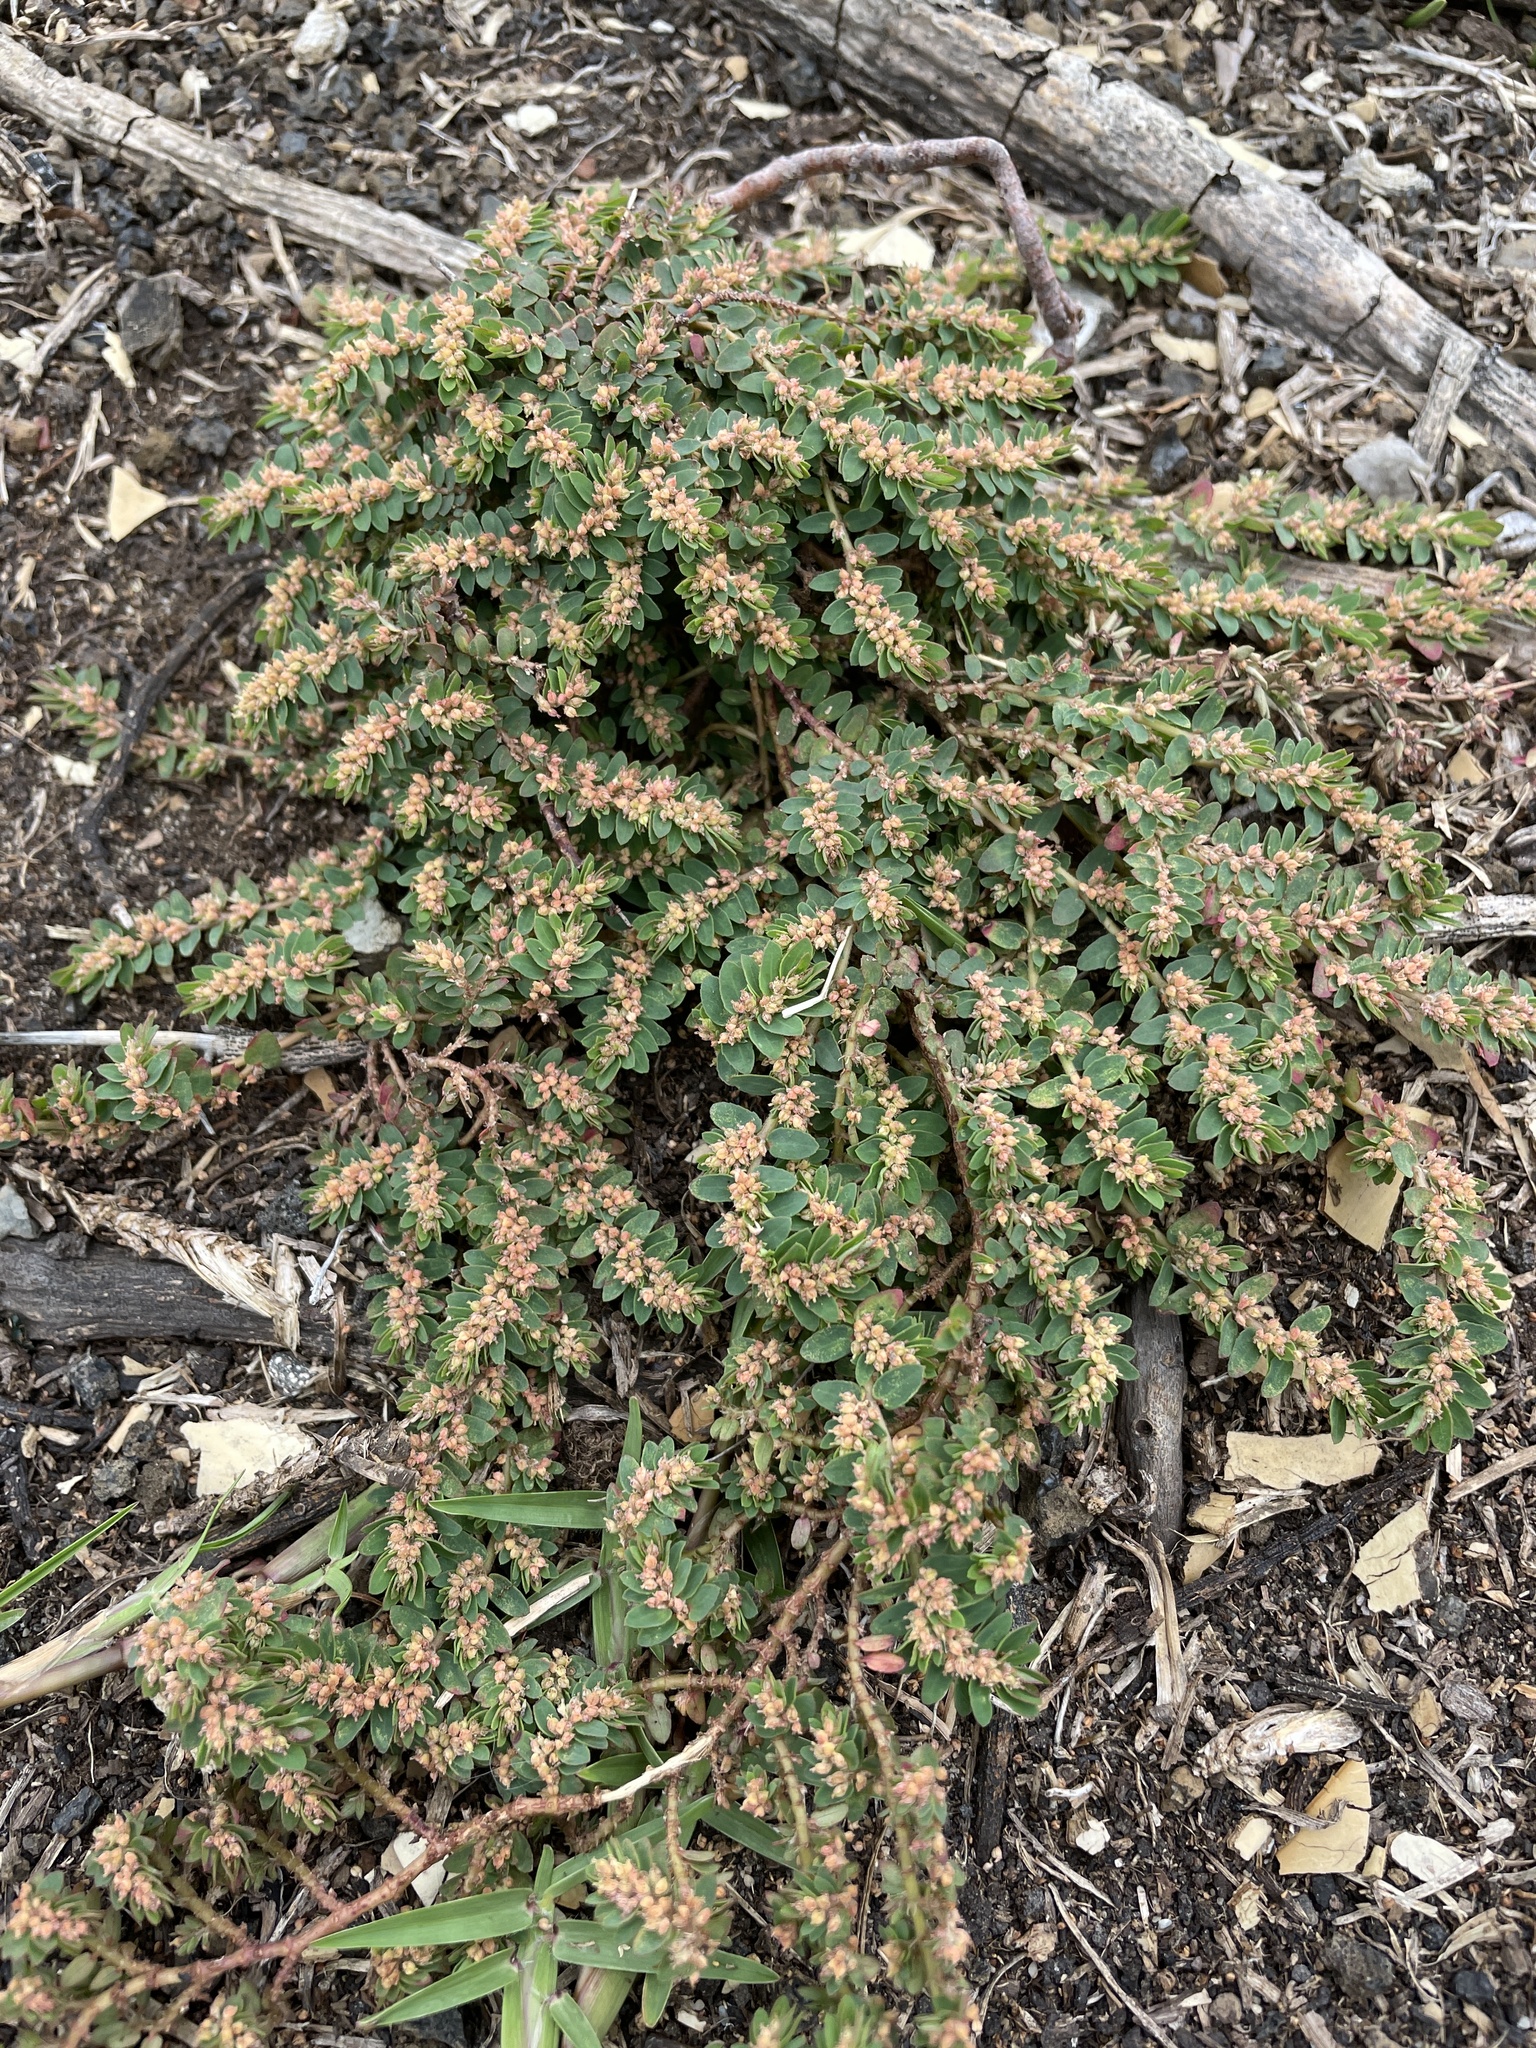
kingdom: Plantae
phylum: Tracheophyta
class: Magnoliopsida
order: Malpighiales
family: Euphorbiaceae
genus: Euphorbia
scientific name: Euphorbia thymifolia
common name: Gulf sandmat
